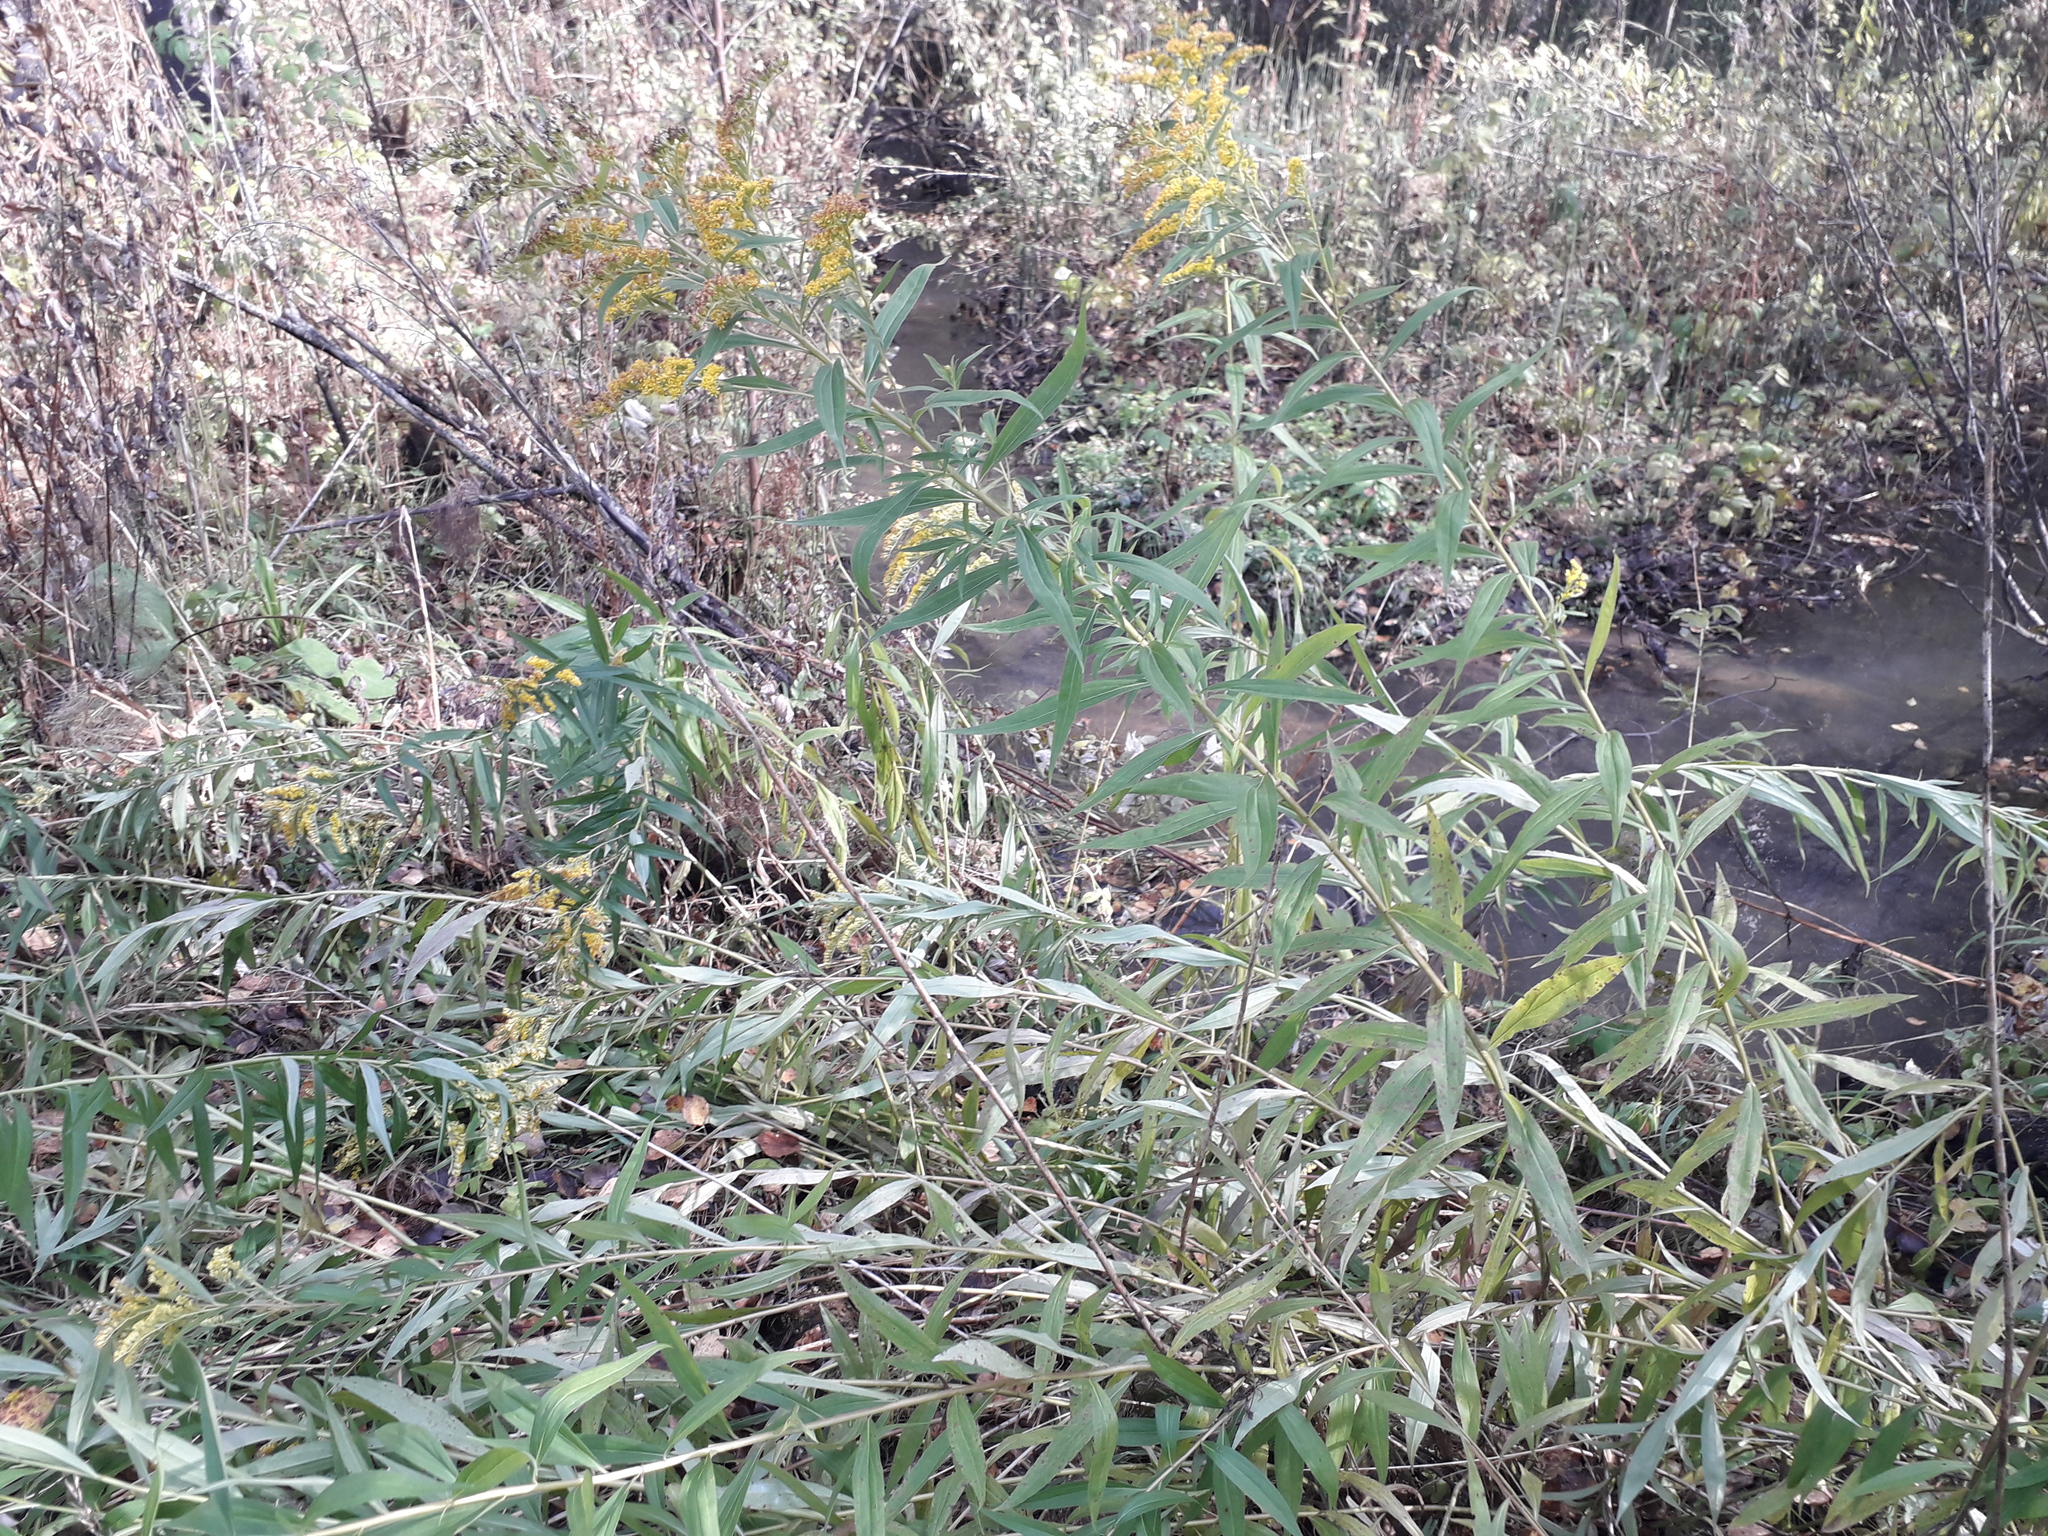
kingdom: Plantae
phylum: Tracheophyta
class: Magnoliopsida
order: Asterales
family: Asteraceae
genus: Solidago
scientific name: Solidago gigantea
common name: Giant goldenrod
